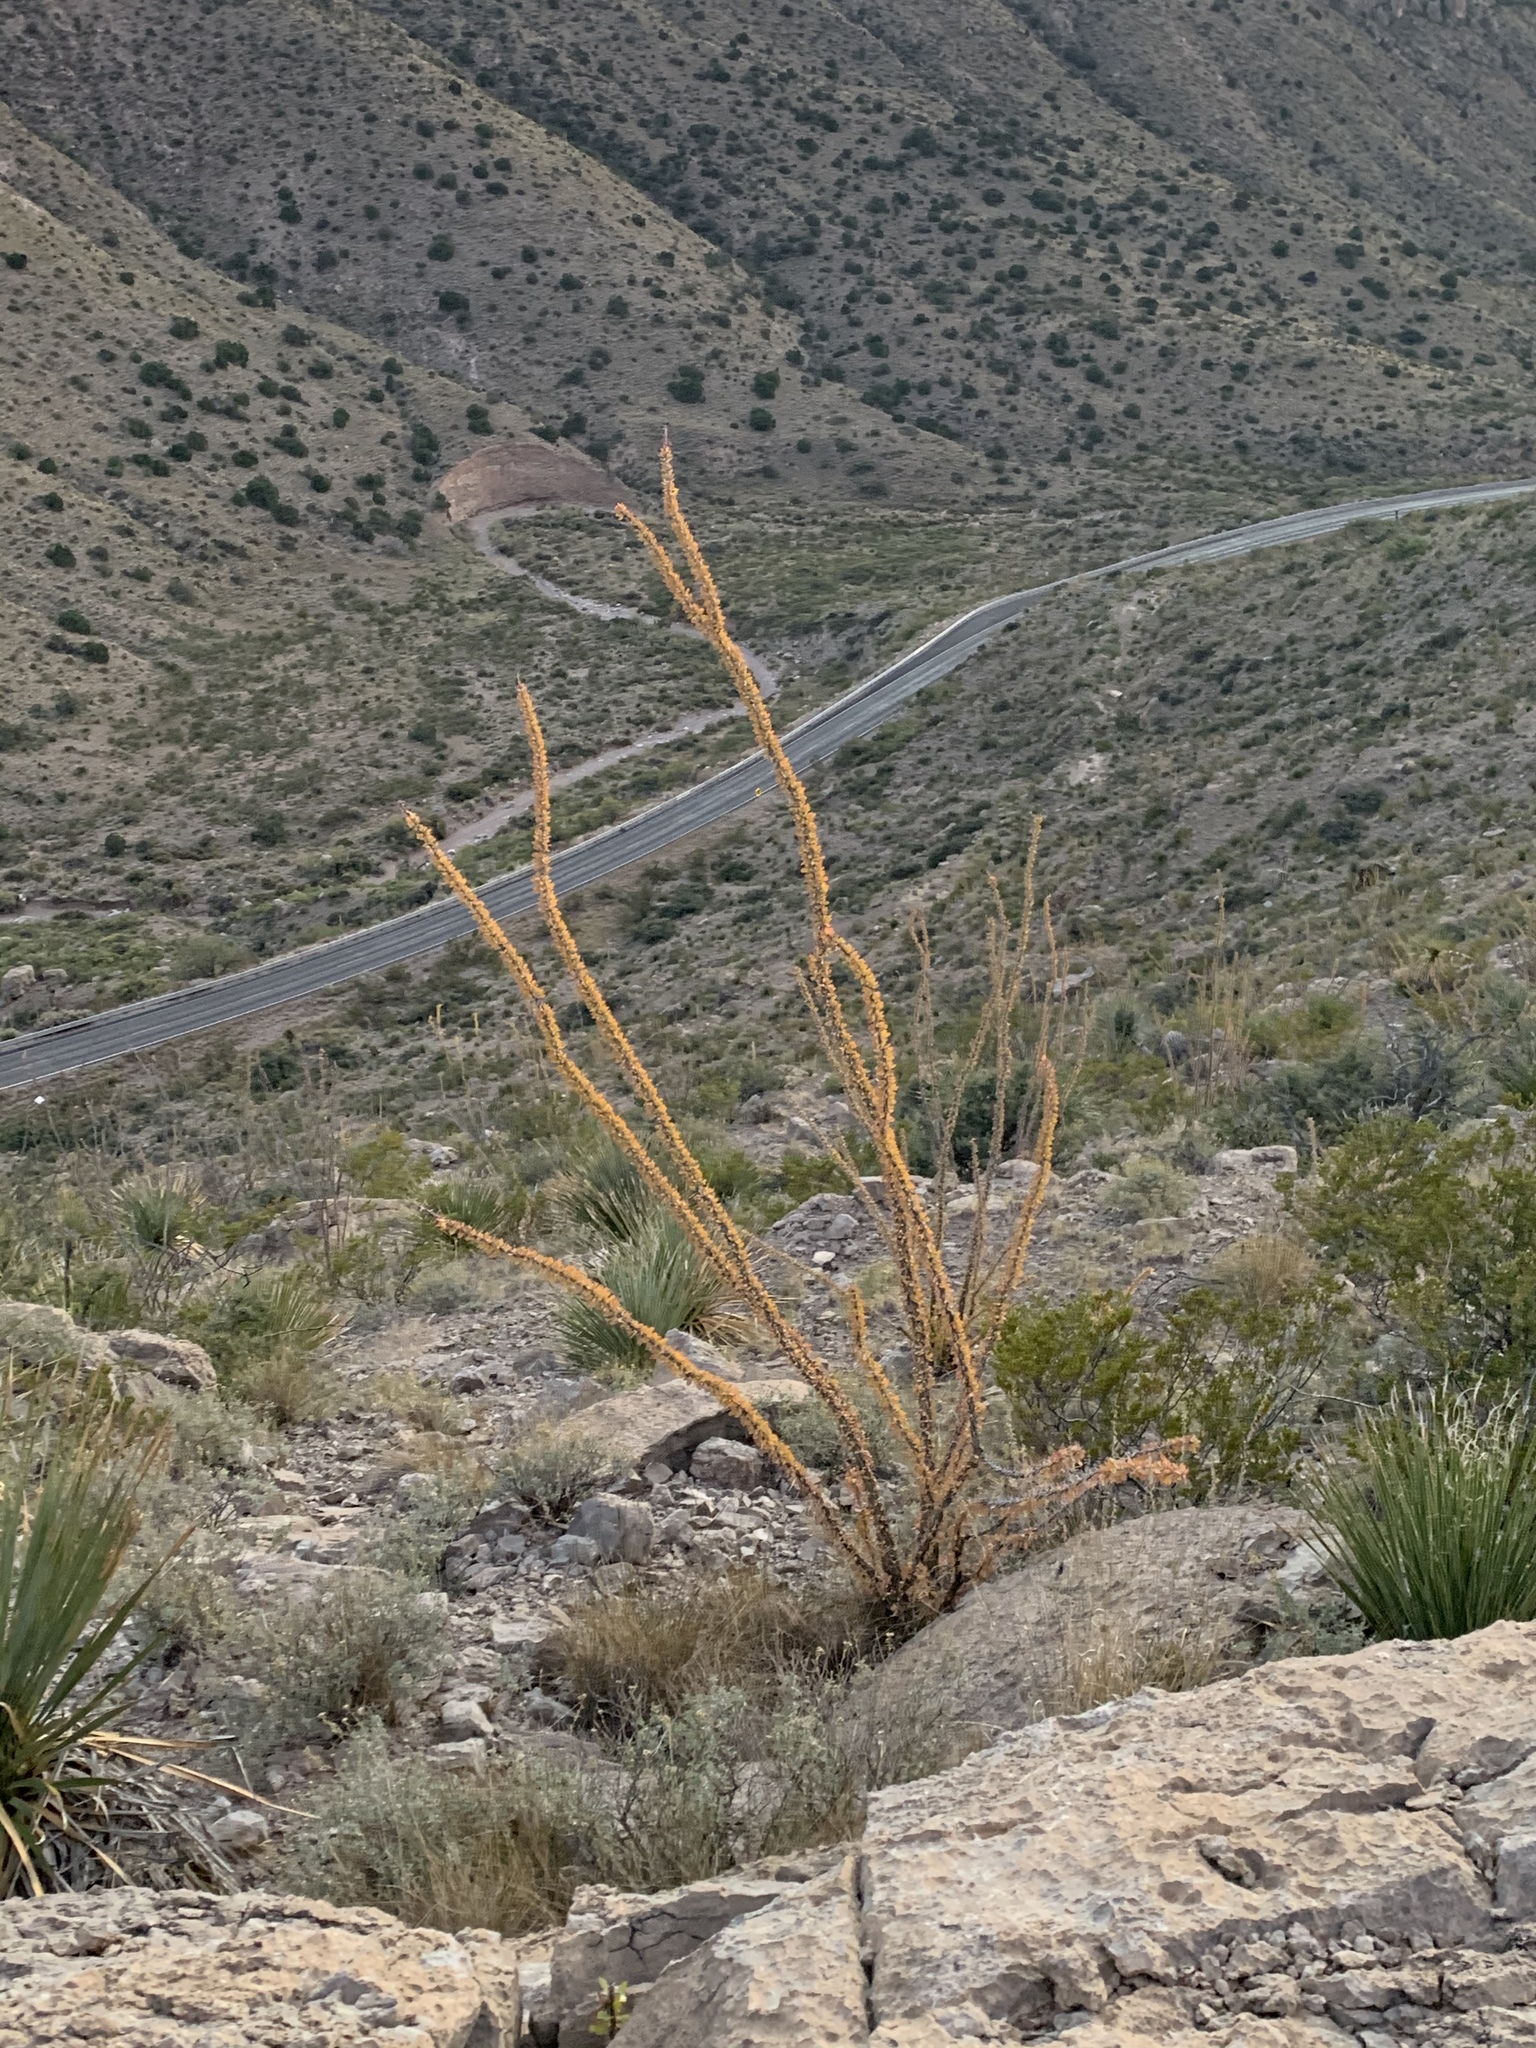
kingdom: Plantae
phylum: Tracheophyta
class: Magnoliopsida
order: Ericales
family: Fouquieriaceae
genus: Fouquieria
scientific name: Fouquieria splendens
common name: Vine-cactus
